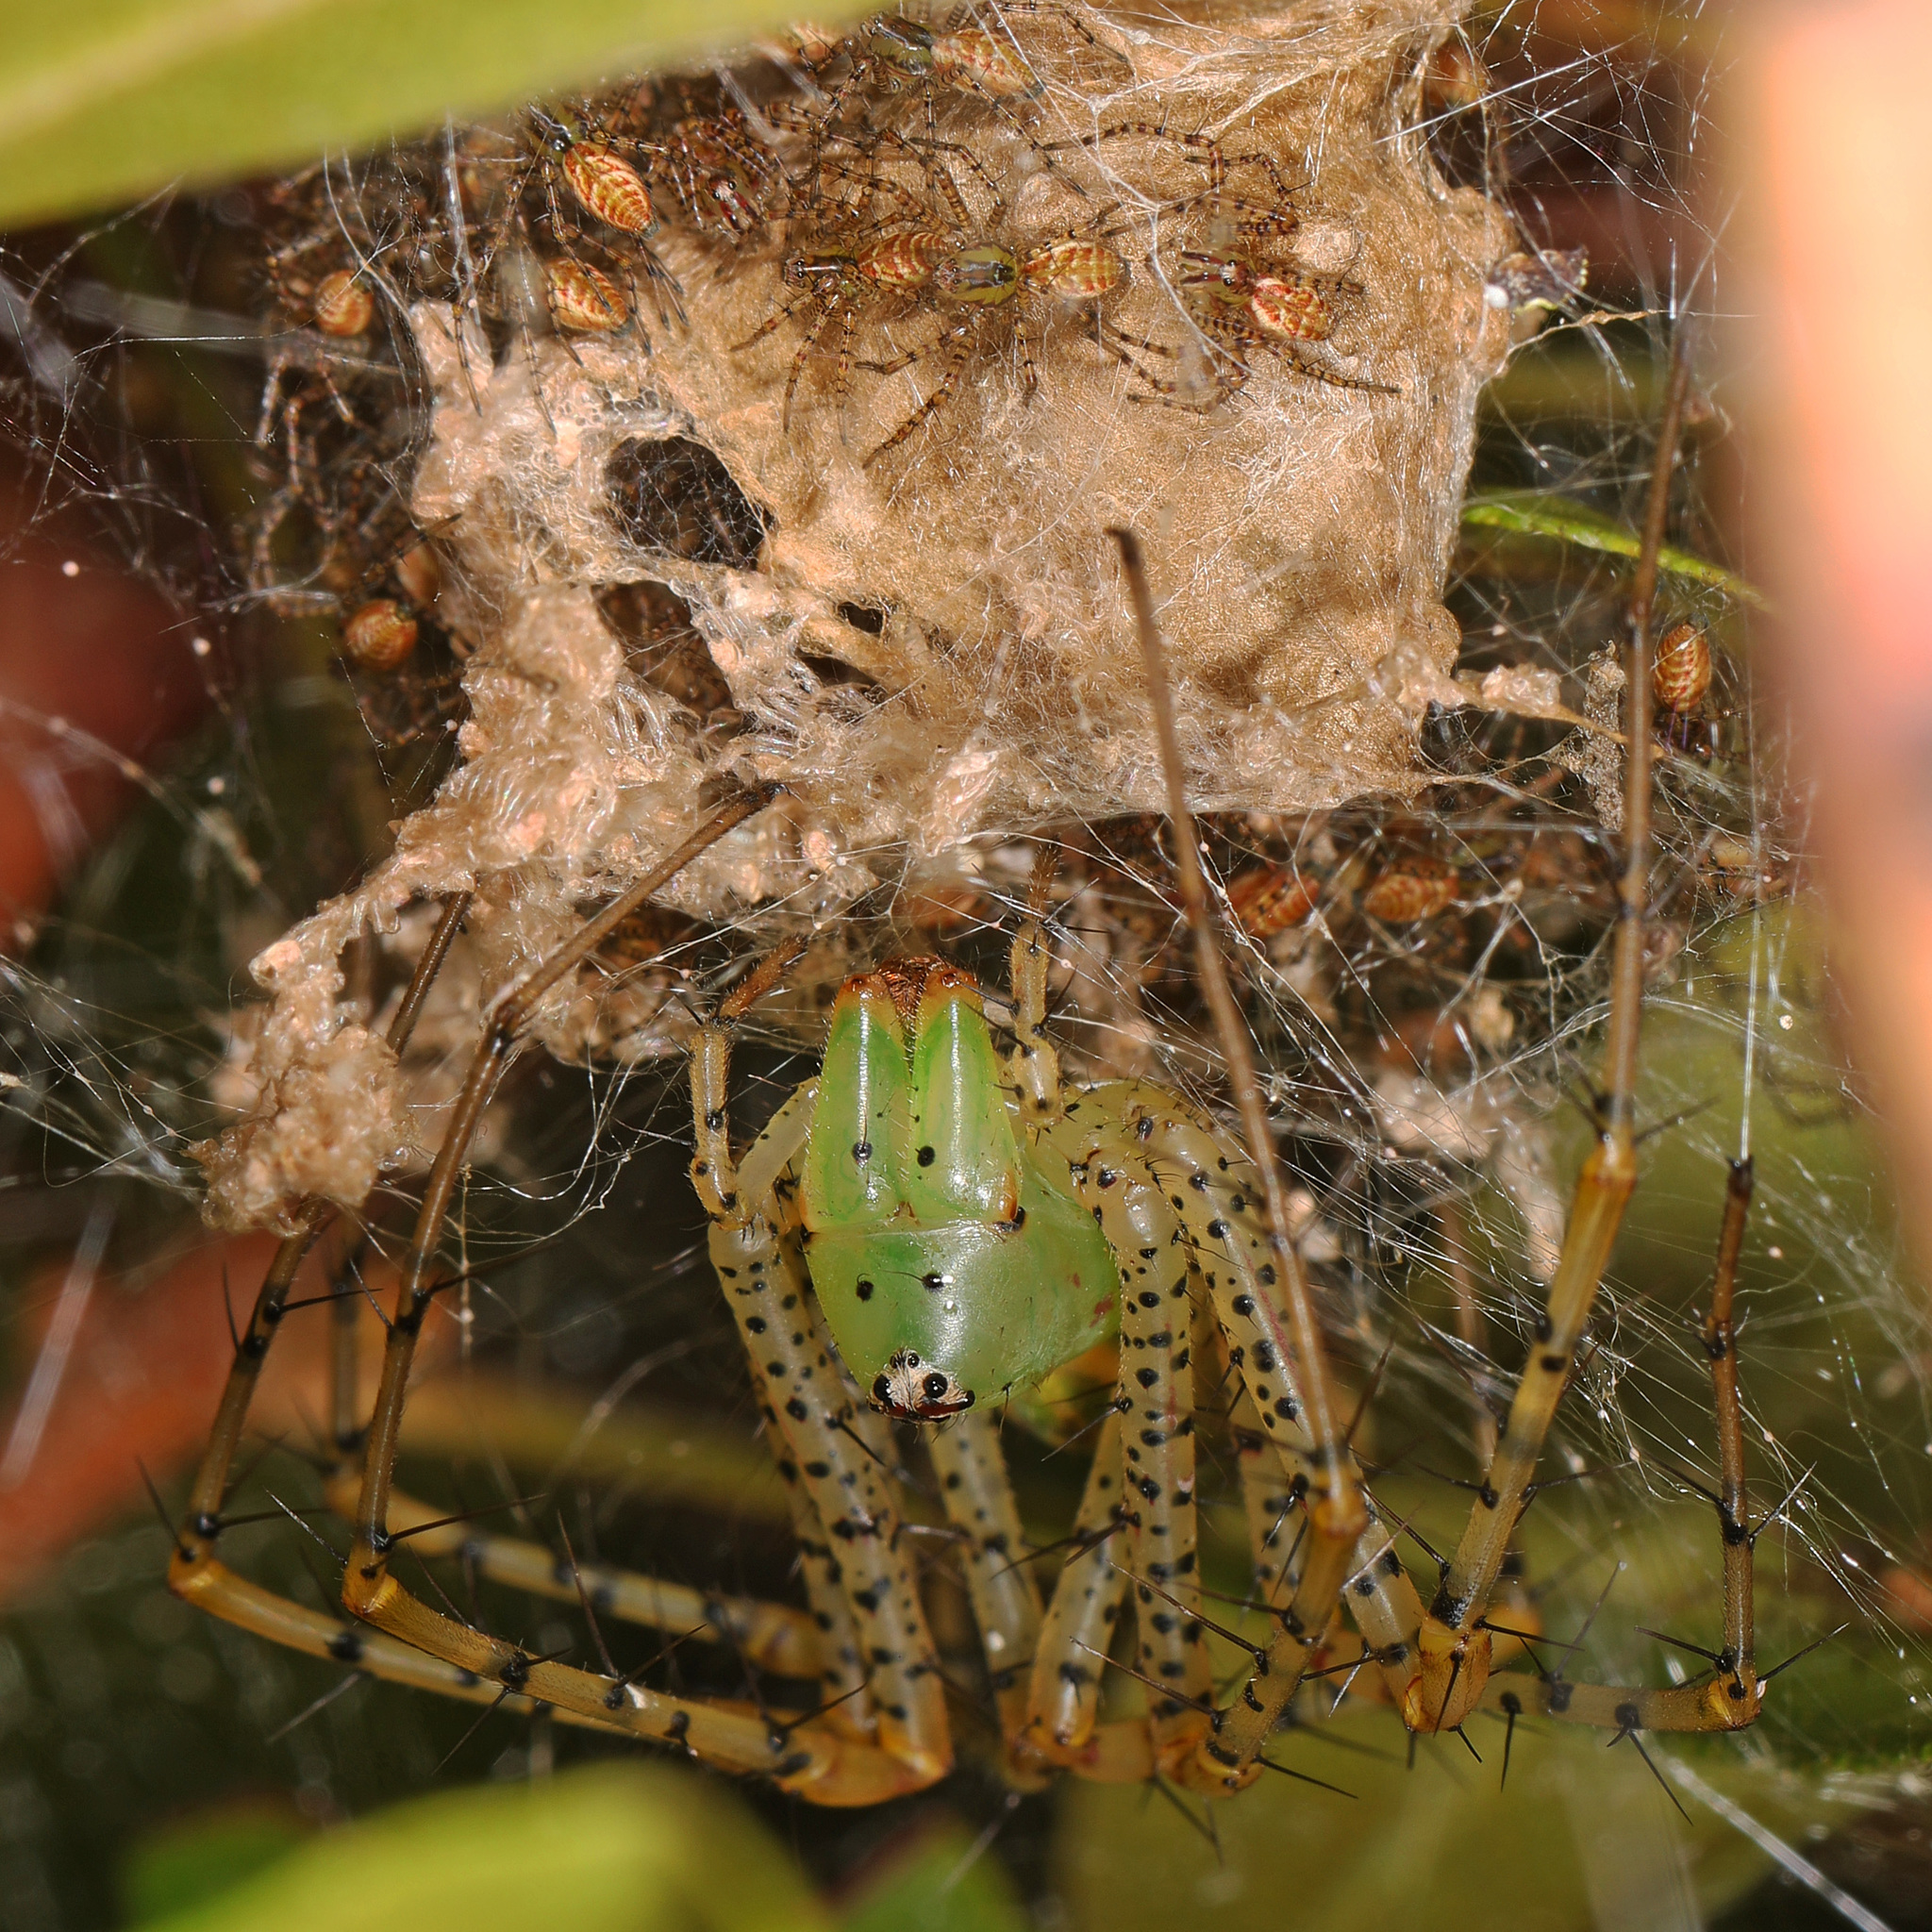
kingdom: Animalia
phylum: Arthropoda
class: Arachnida
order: Araneae
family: Oxyopidae
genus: Peucetia
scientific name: Peucetia viridans
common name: Lynx spiders
